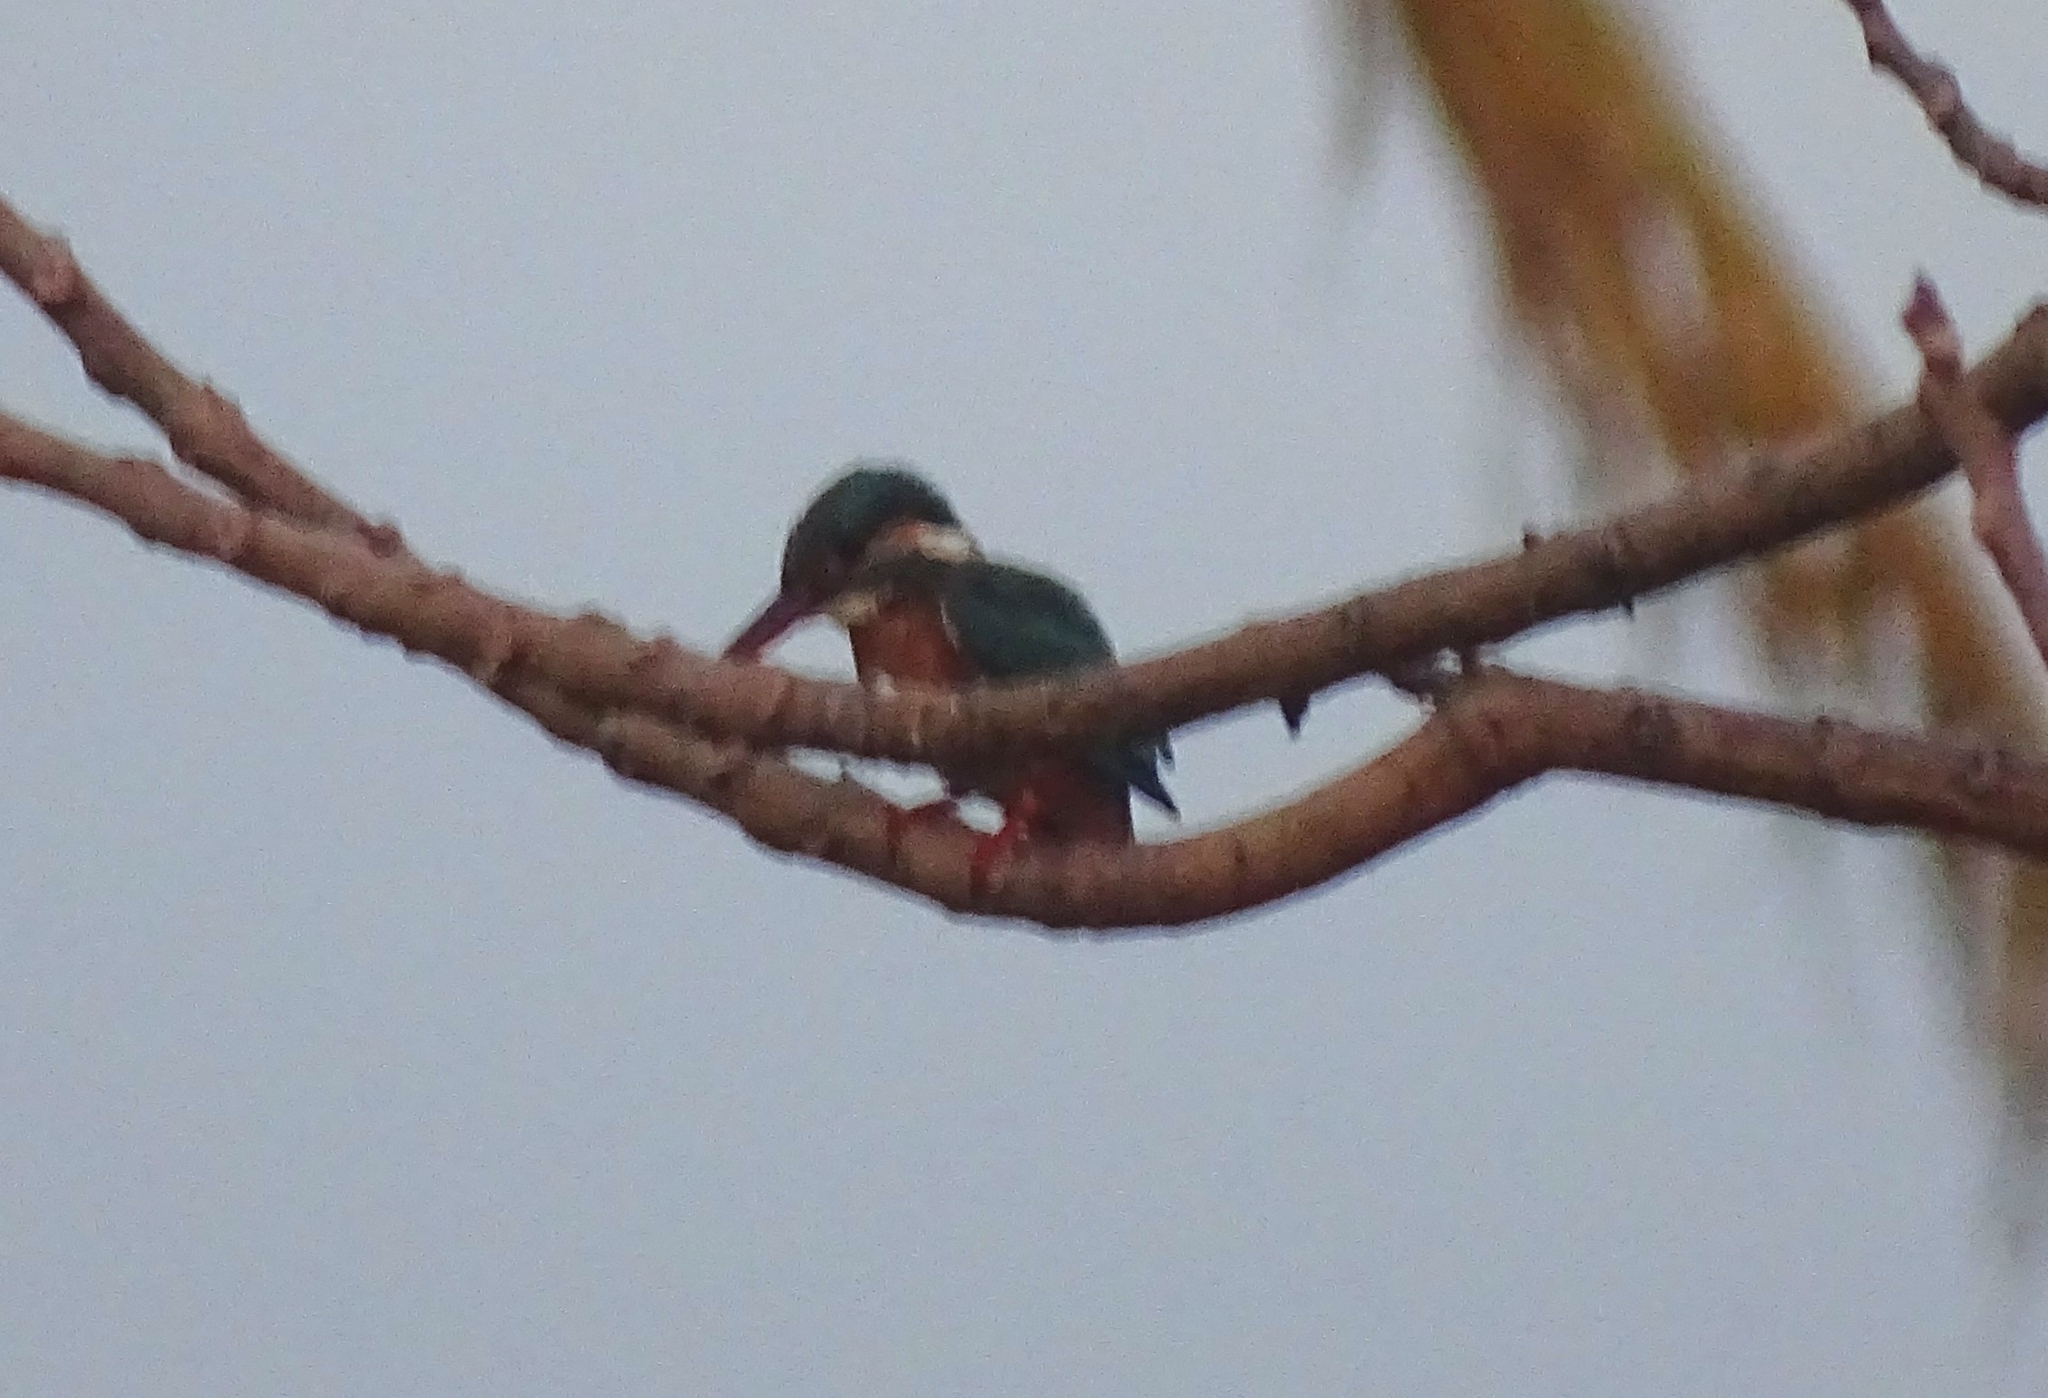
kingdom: Animalia
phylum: Chordata
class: Aves
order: Coraciiformes
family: Alcedinidae
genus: Alcedo
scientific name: Alcedo atthis
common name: Common kingfisher
